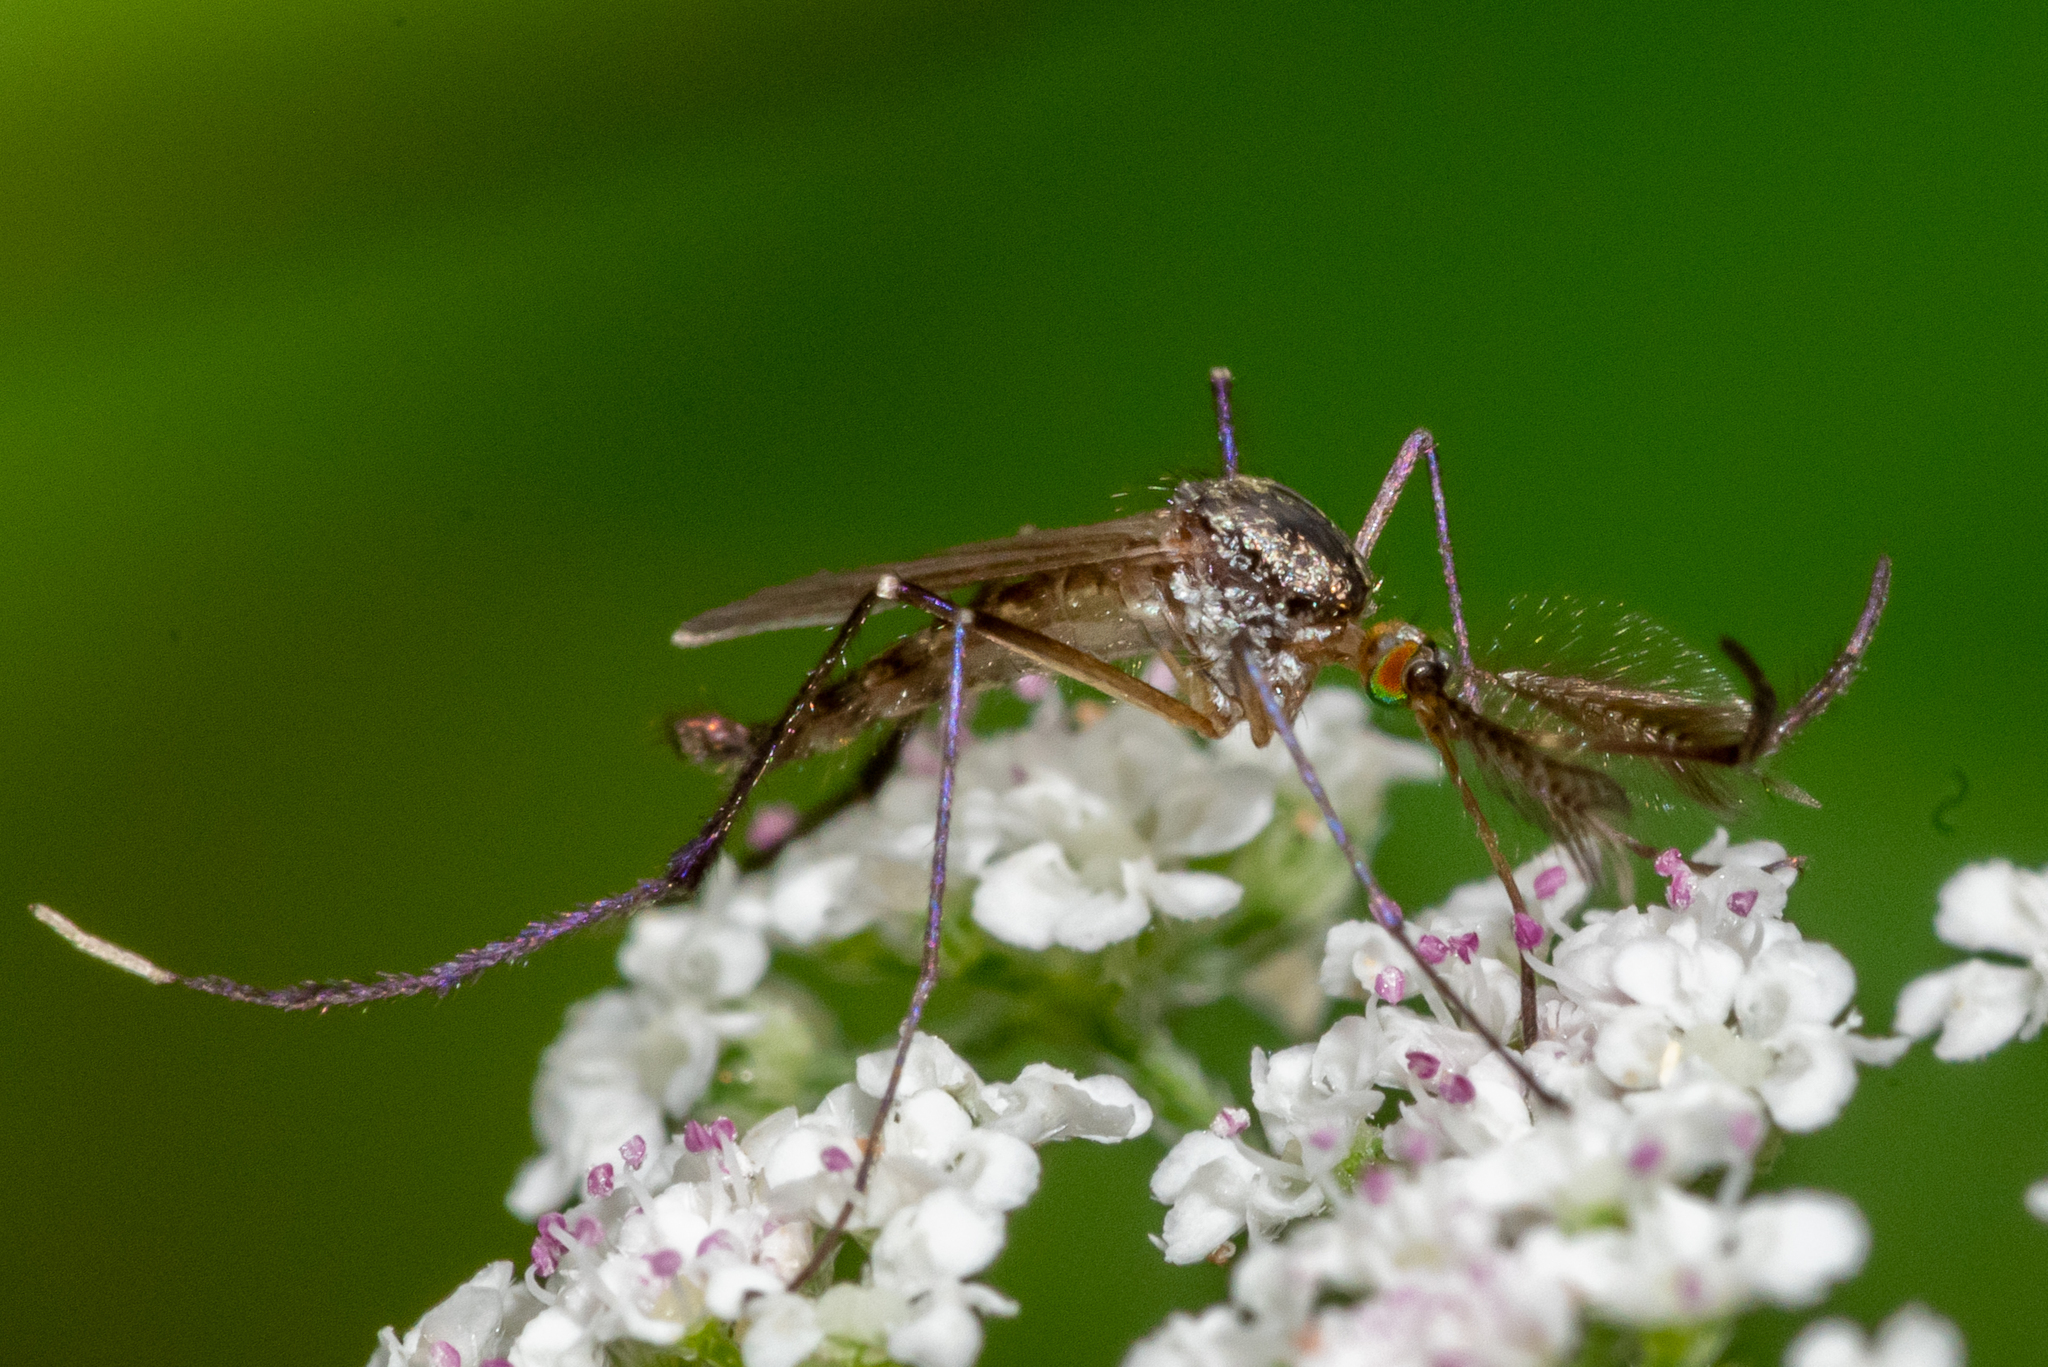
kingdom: Animalia
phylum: Arthropoda
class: Insecta
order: Diptera
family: Culicidae
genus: Psorophora
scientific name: Psorophora ferox
